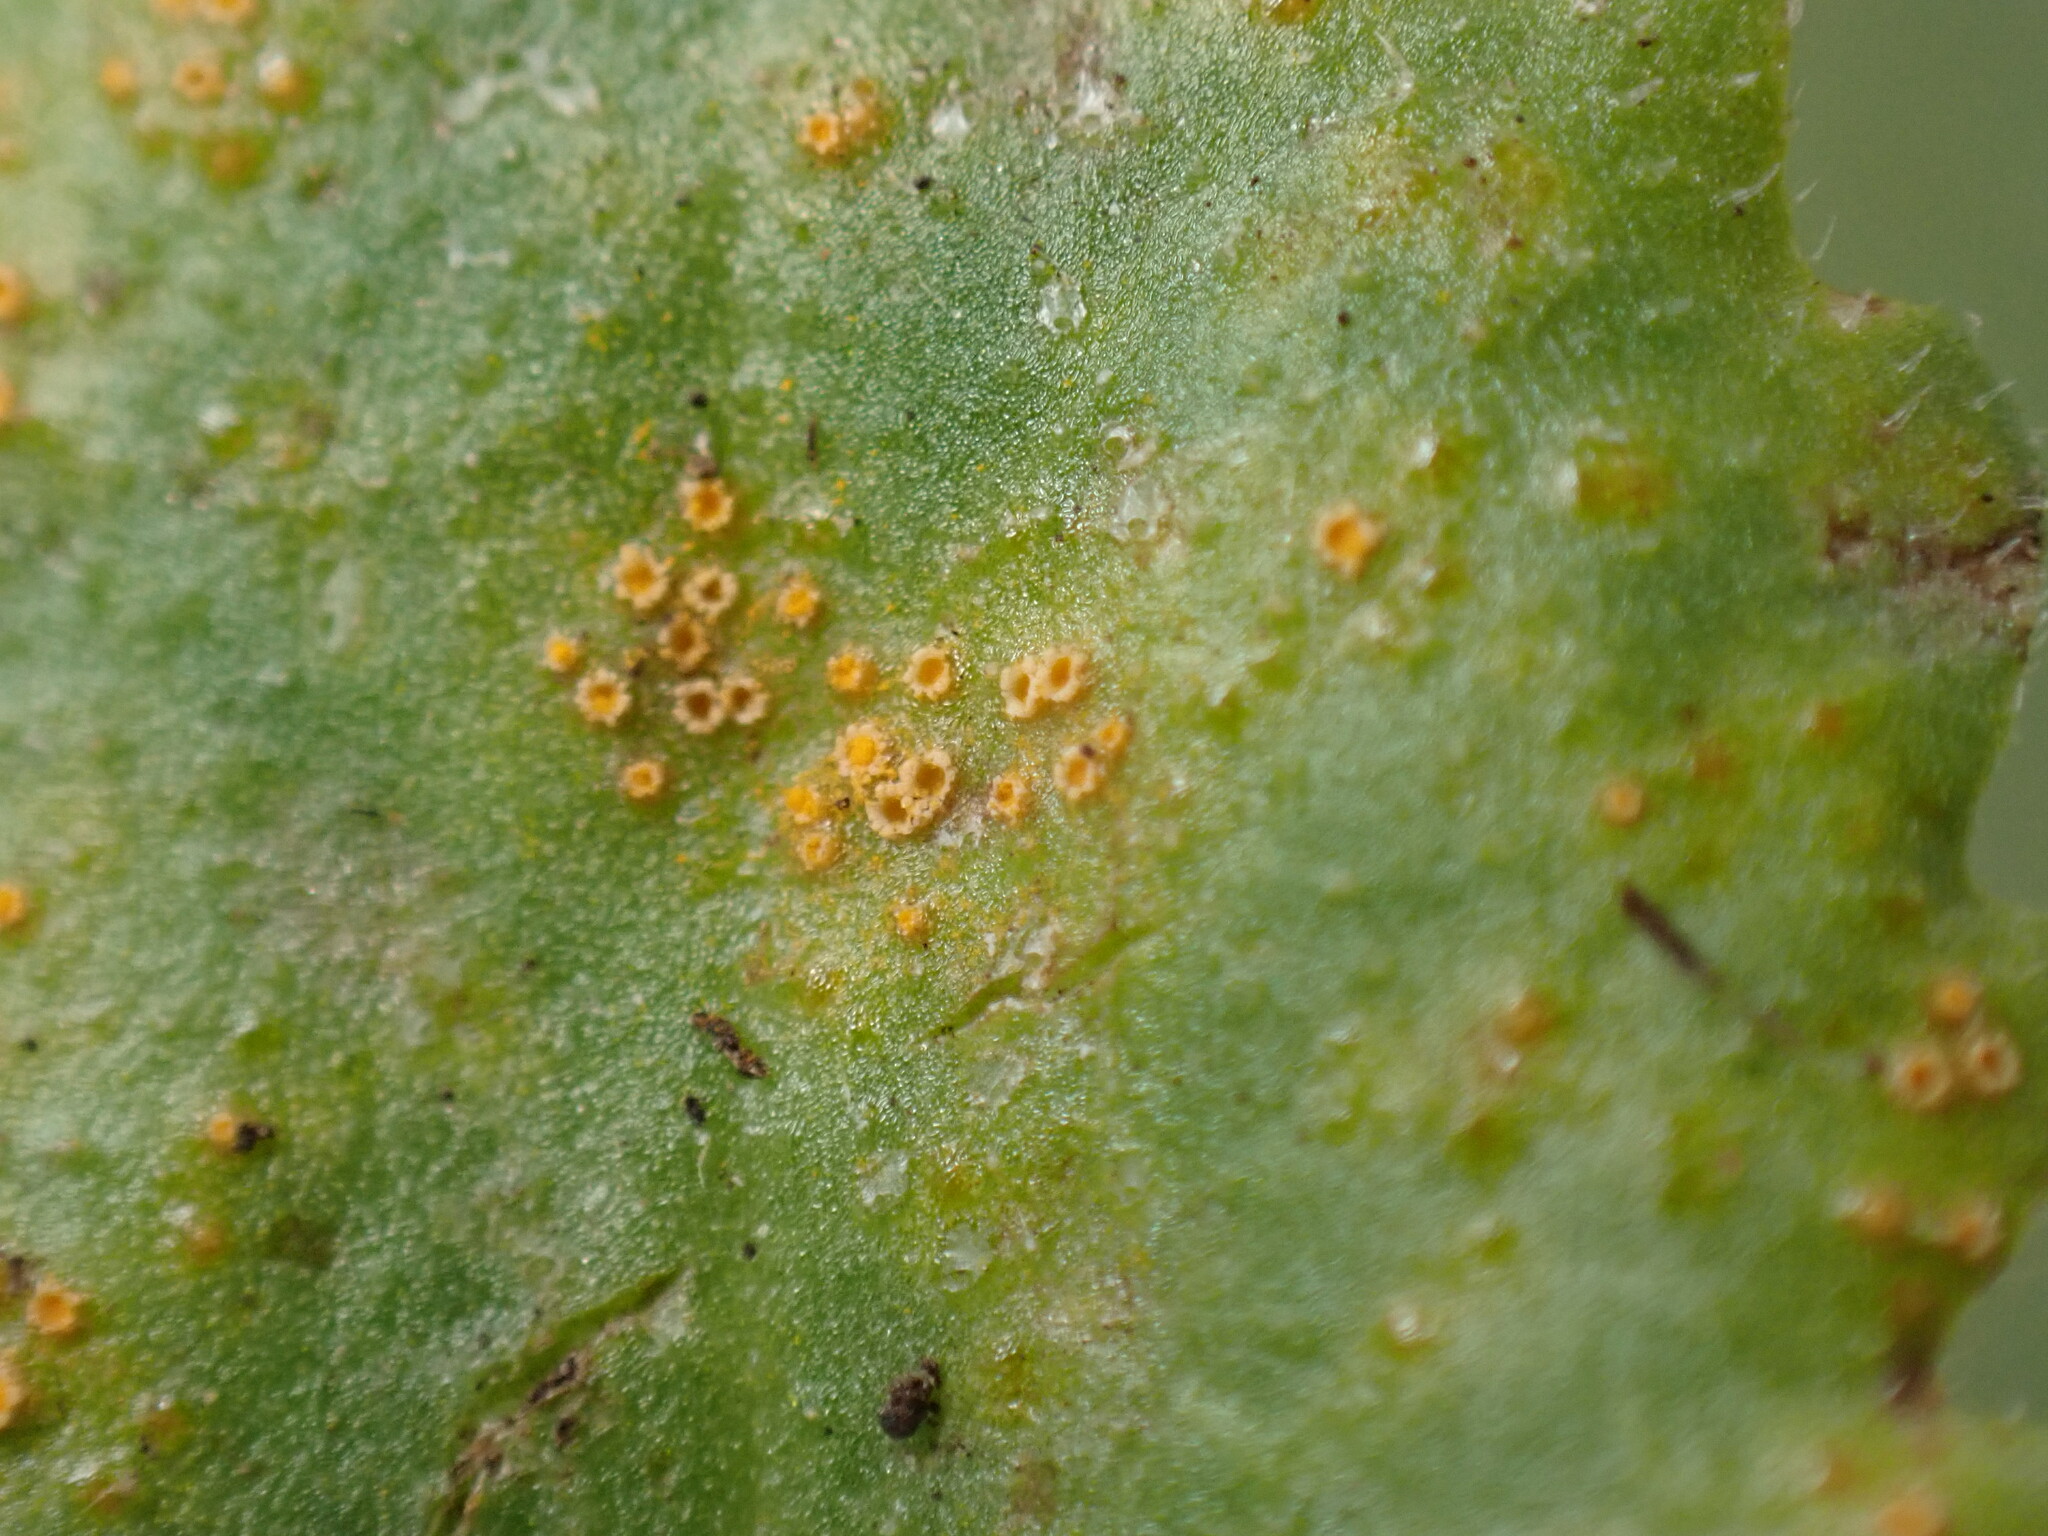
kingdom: Fungi
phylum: Basidiomycota
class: Pucciniomycetes
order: Pucciniales
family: Pucciniaceae
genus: Puccinia
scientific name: Puccinia lagenophorae
